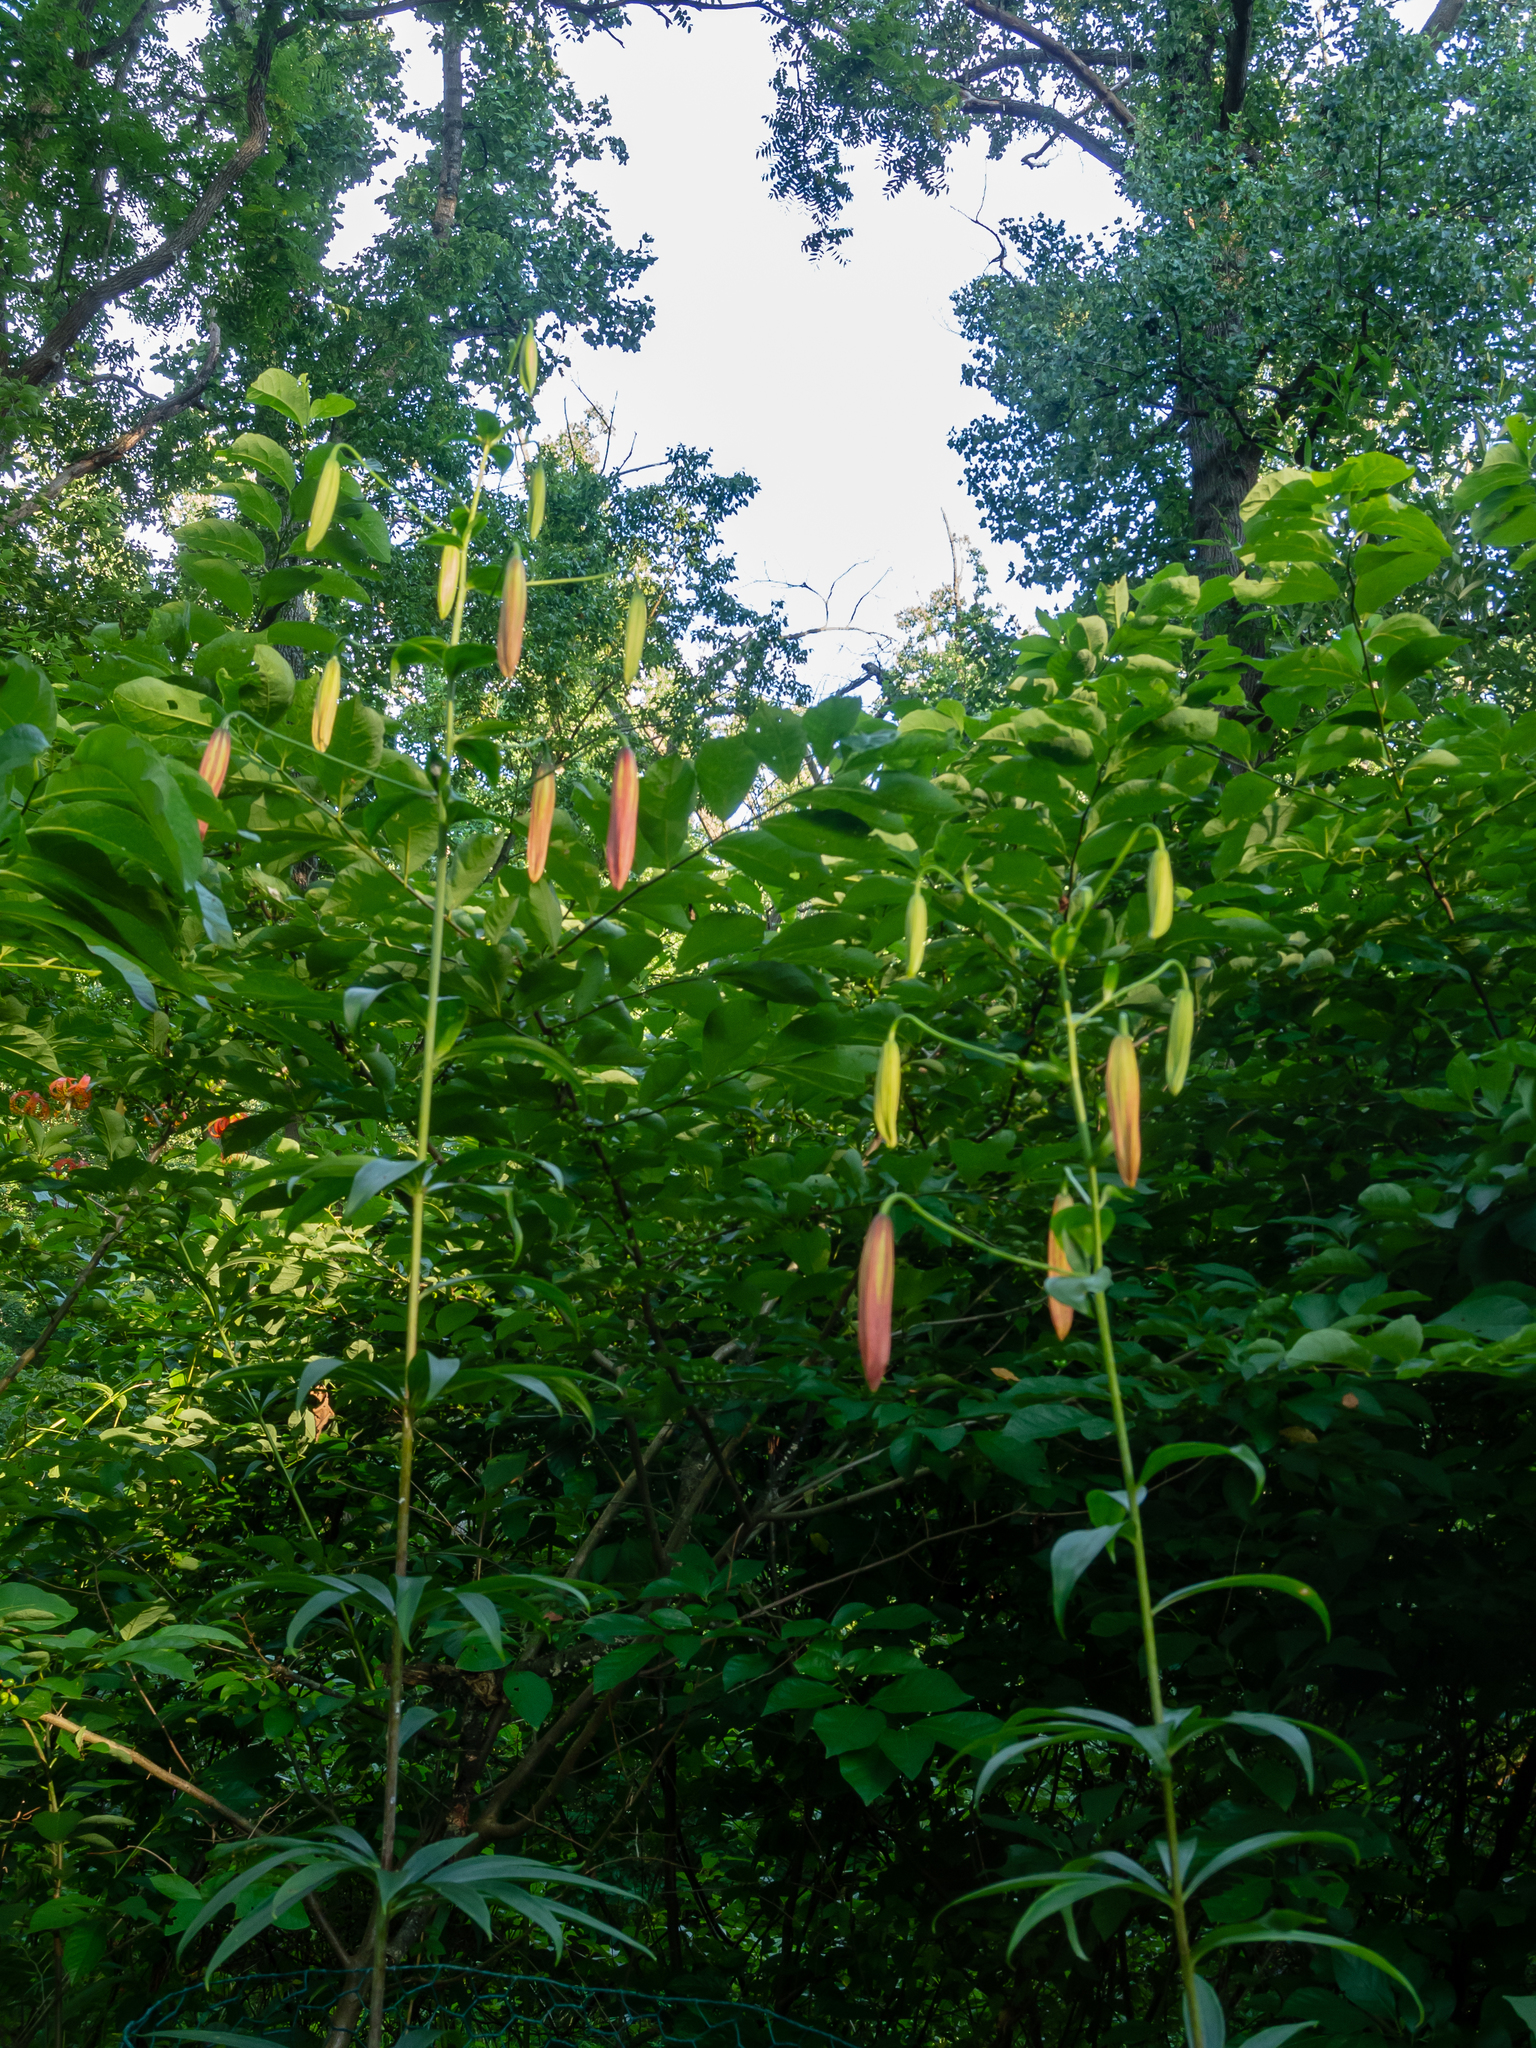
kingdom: Plantae
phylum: Tracheophyta
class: Liliopsida
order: Liliales
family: Liliaceae
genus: Lilium
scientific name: Lilium superbum
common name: American turk's-cap lily
